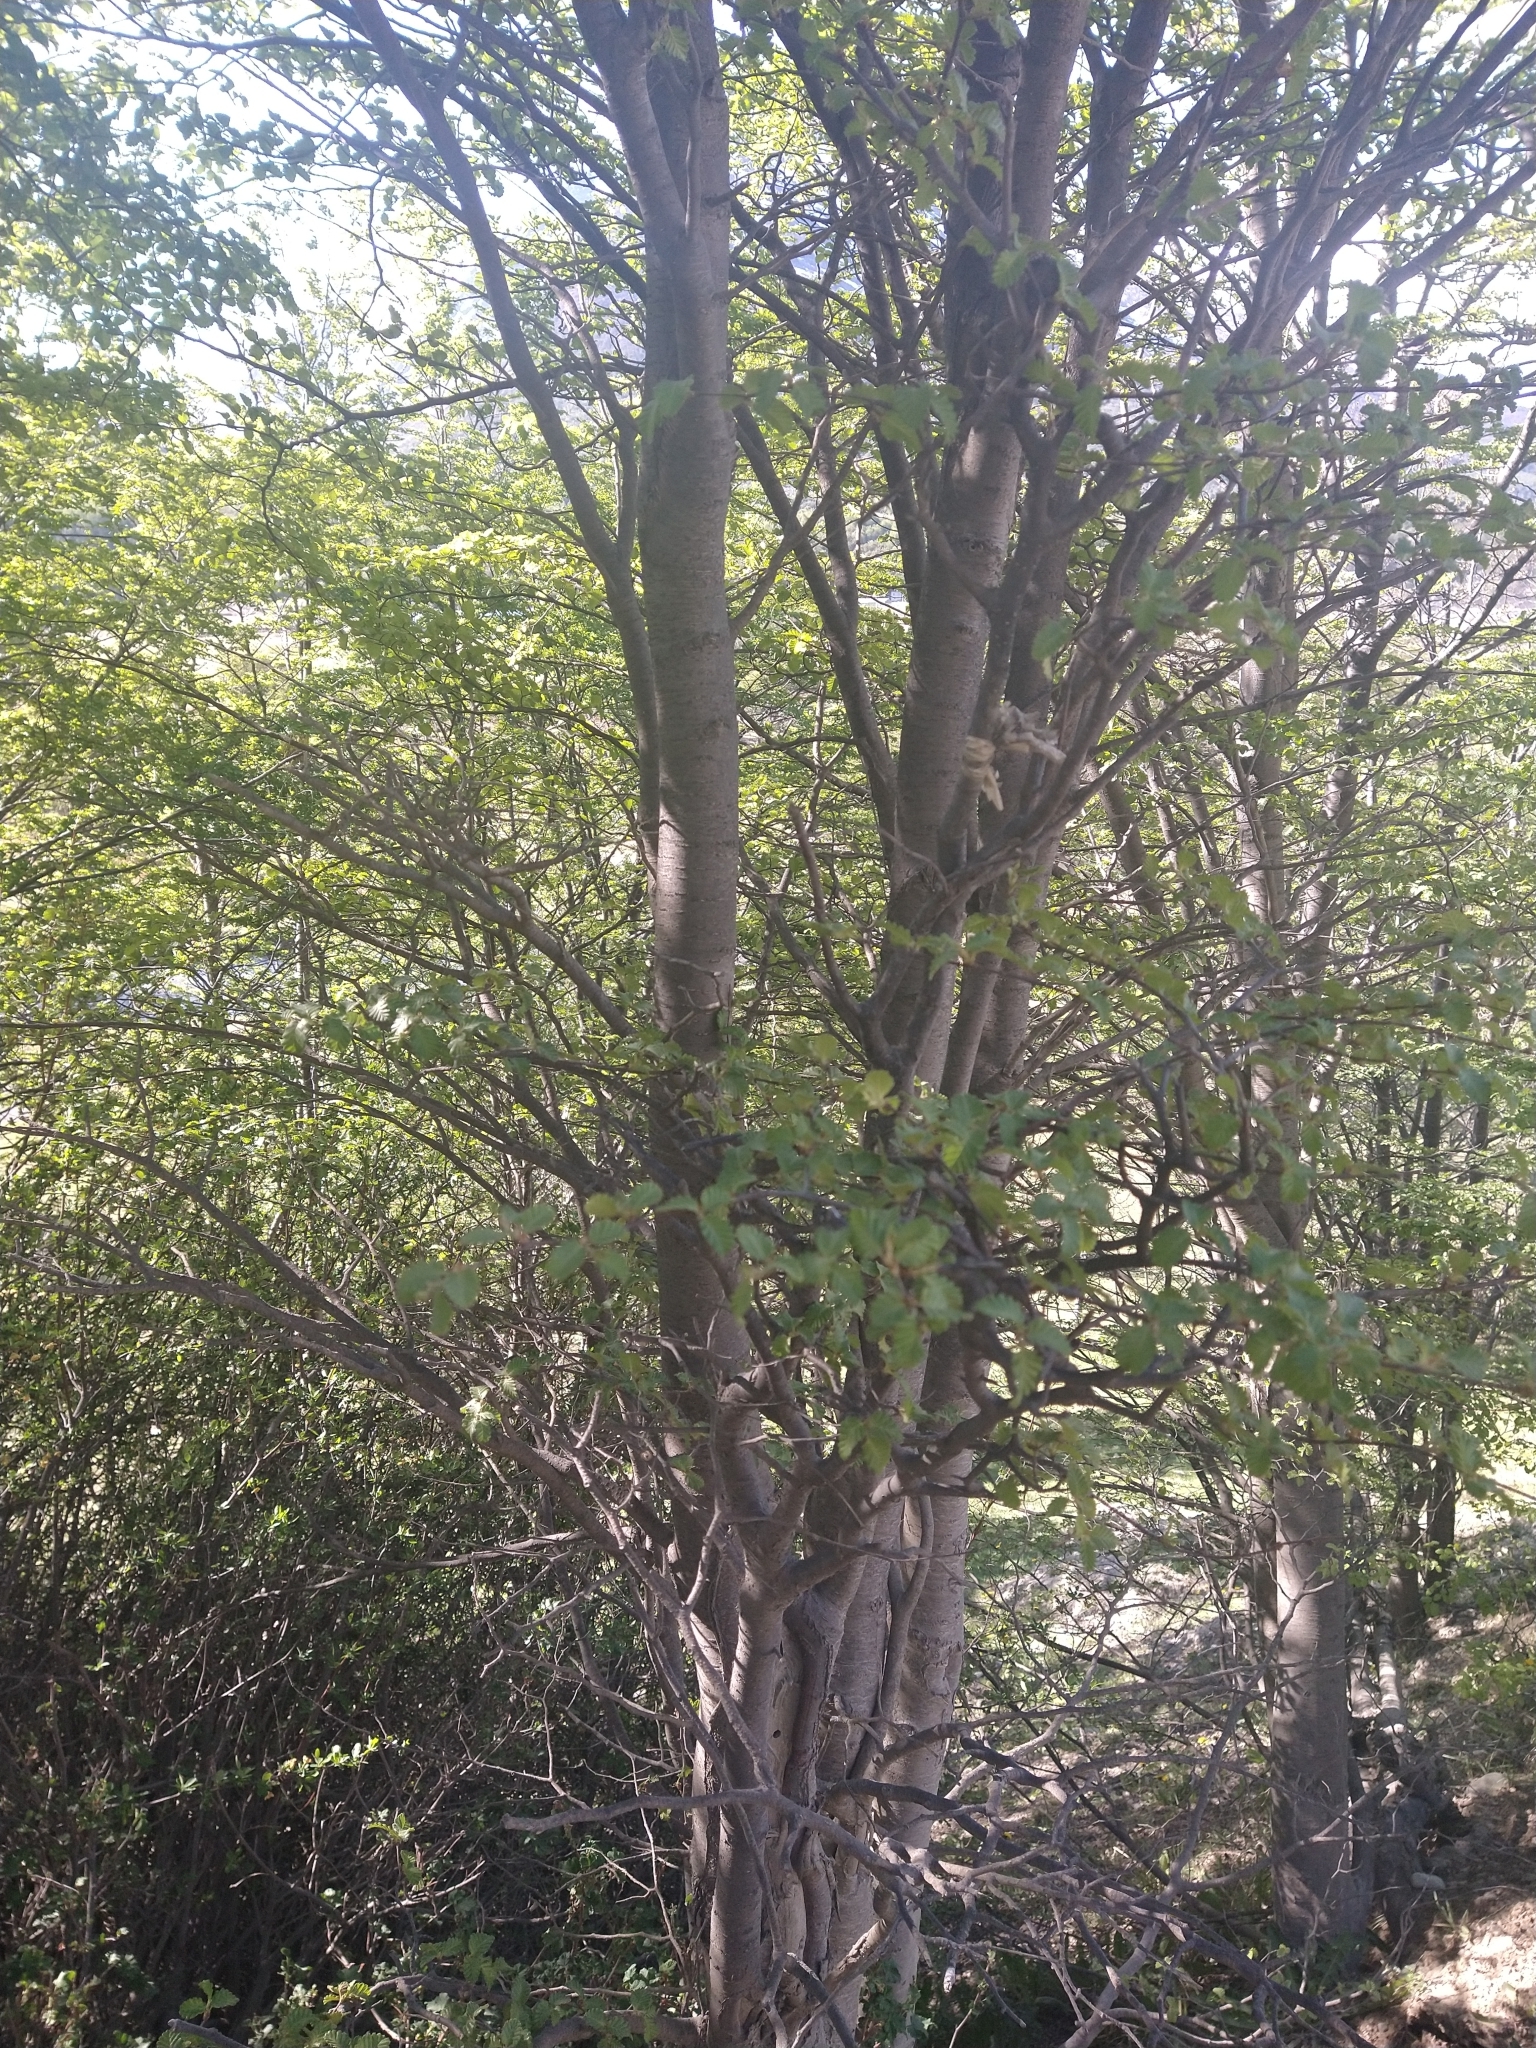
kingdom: Plantae
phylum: Tracheophyta
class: Magnoliopsida
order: Fagales
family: Nothofagaceae
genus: Nothofagus
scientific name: Nothofagus pumilio
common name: Lenga beech
